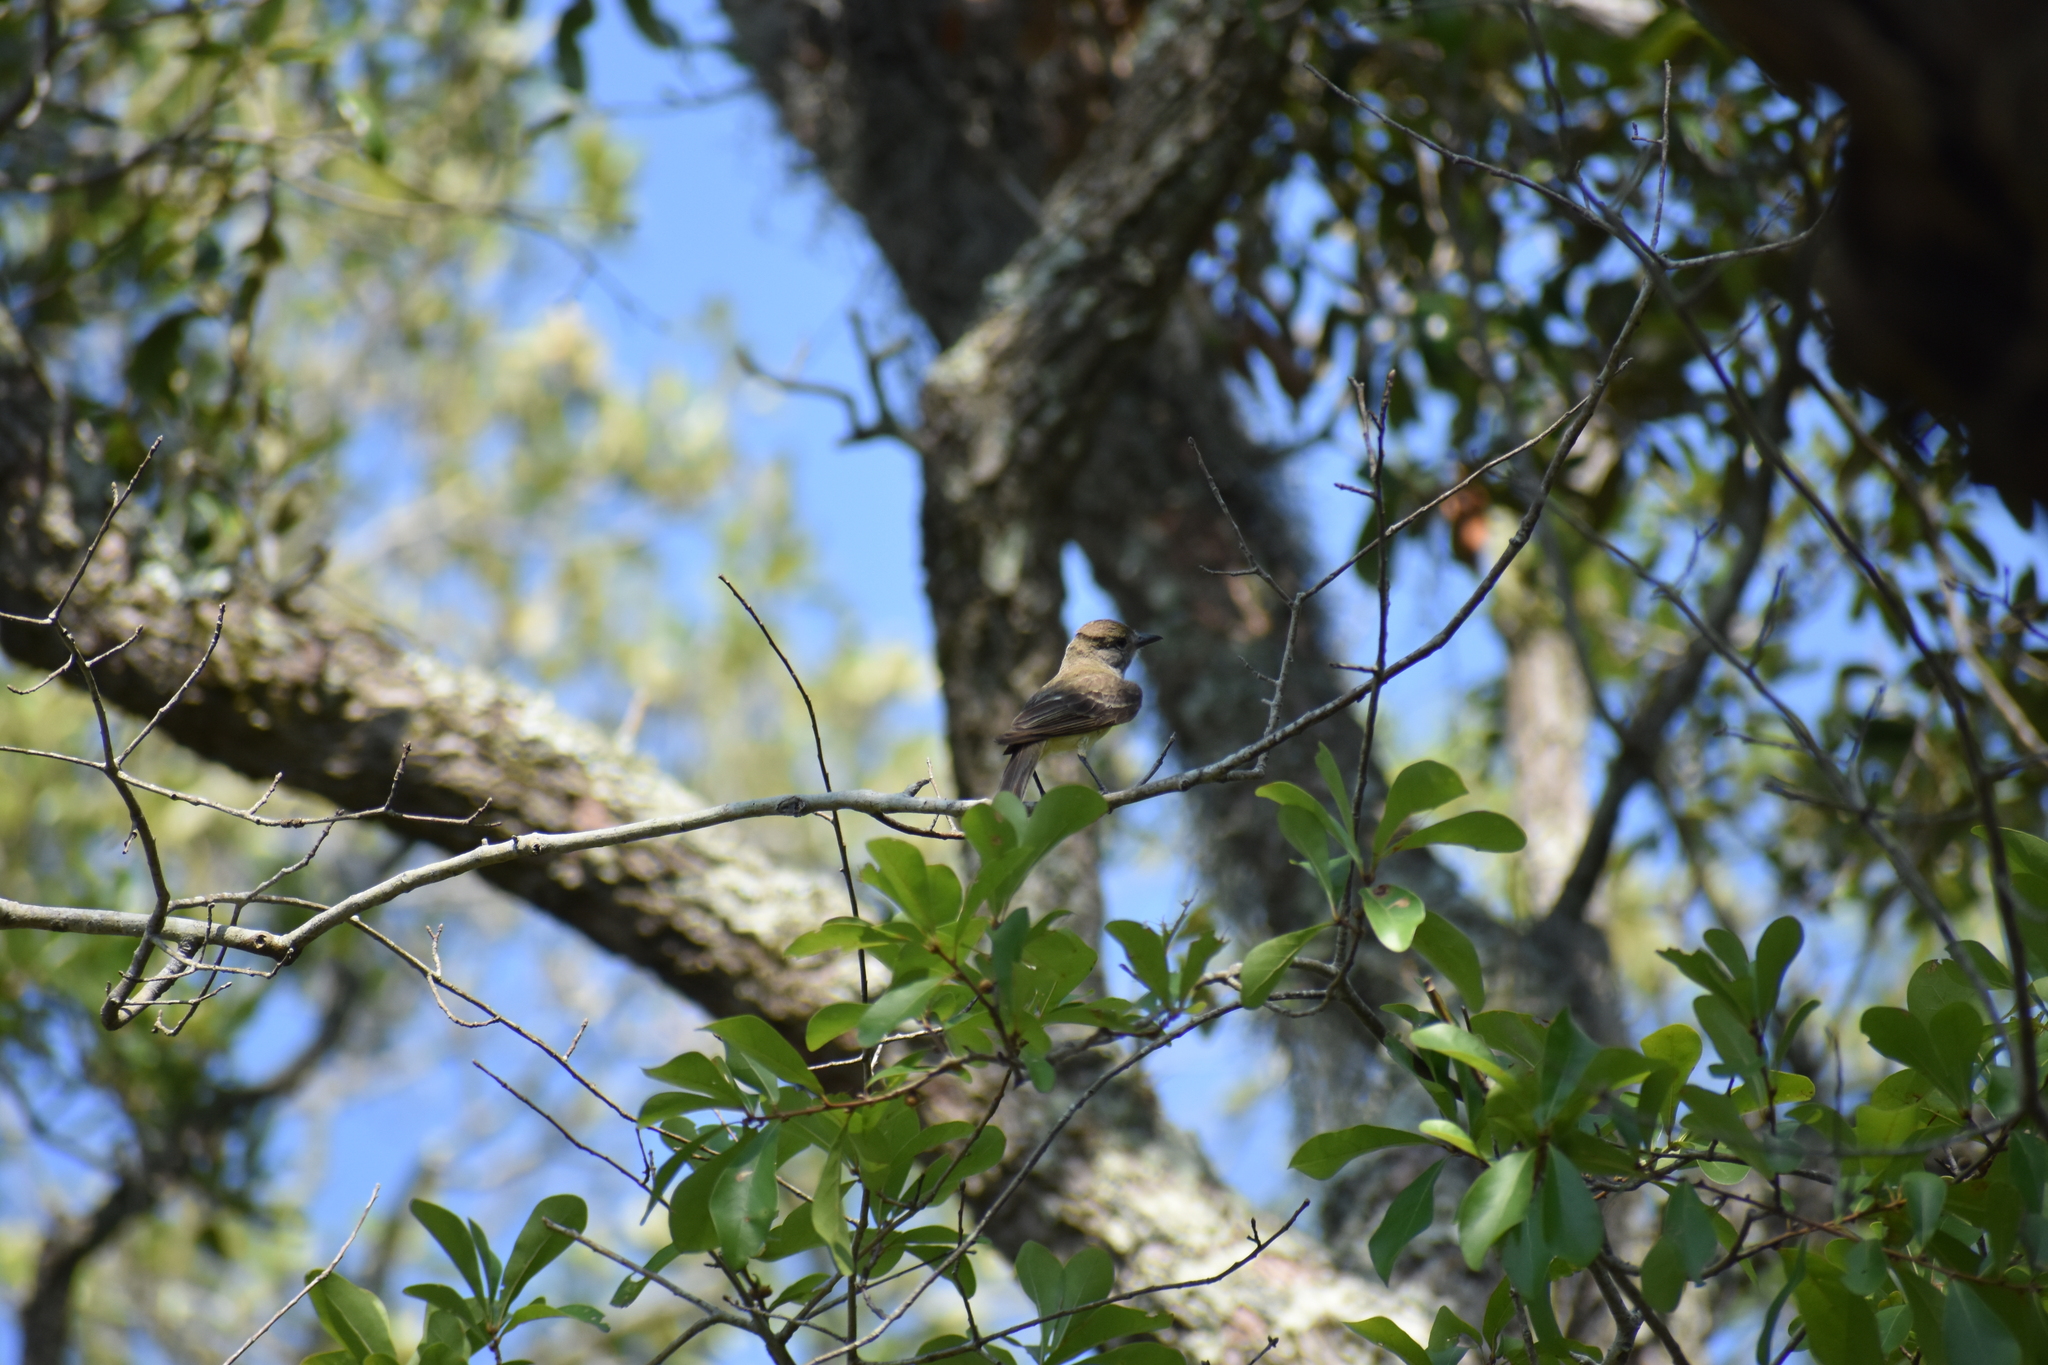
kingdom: Animalia
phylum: Chordata
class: Aves
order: Passeriformes
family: Tyrannidae
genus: Myiarchus
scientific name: Myiarchus crinitus
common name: Great crested flycatcher
